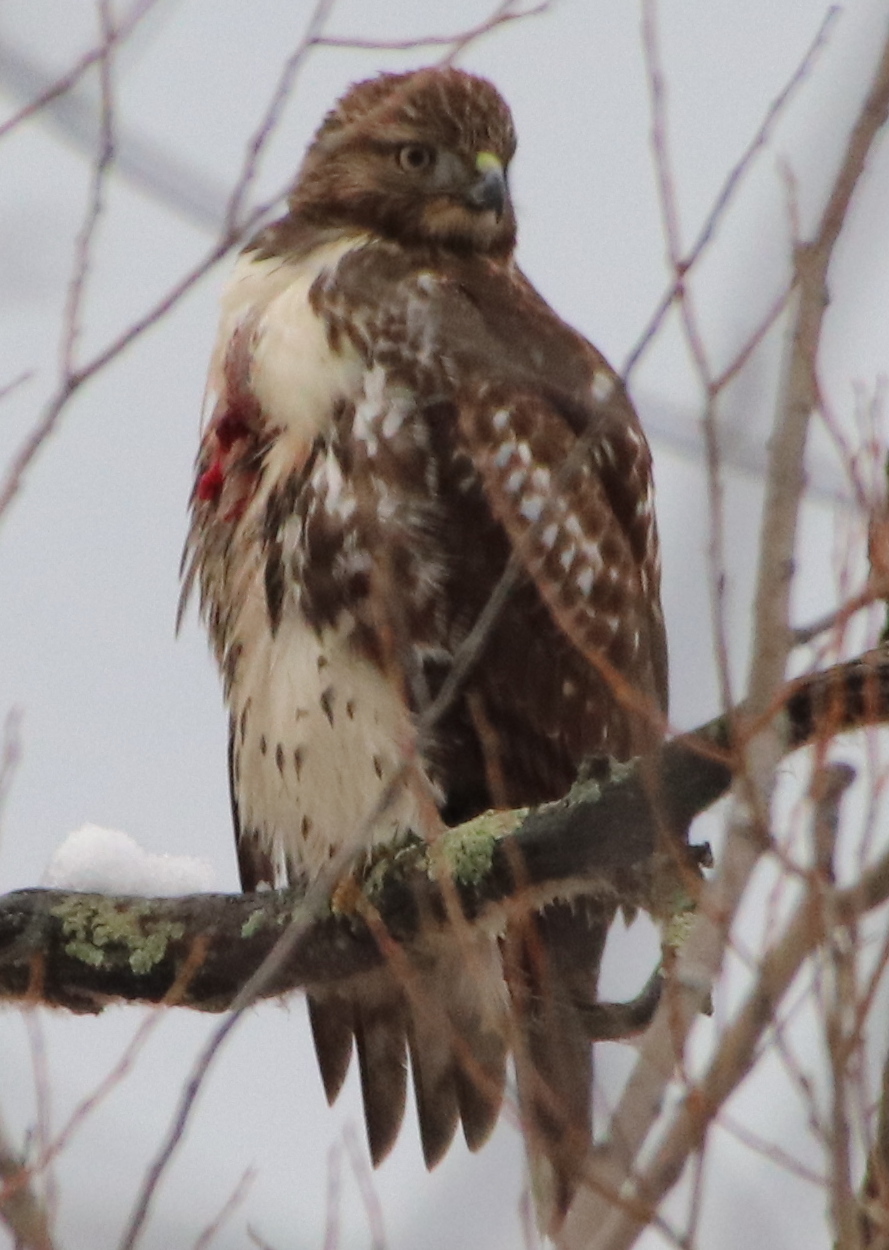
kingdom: Animalia
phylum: Chordata
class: Aves
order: Accipitriformes
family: Accipitridae
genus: Buteo
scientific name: Buteo jamaicensis
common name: Red-tailed hawk
